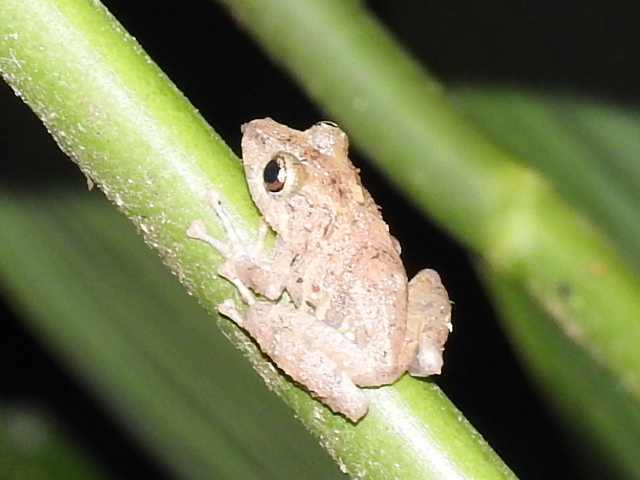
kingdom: Animalia
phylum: Chordata
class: Amphibia
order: Anura
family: Craugastoridae
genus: Pristimantis
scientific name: Pristimantis ridens
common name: Rio san juan robber frog
